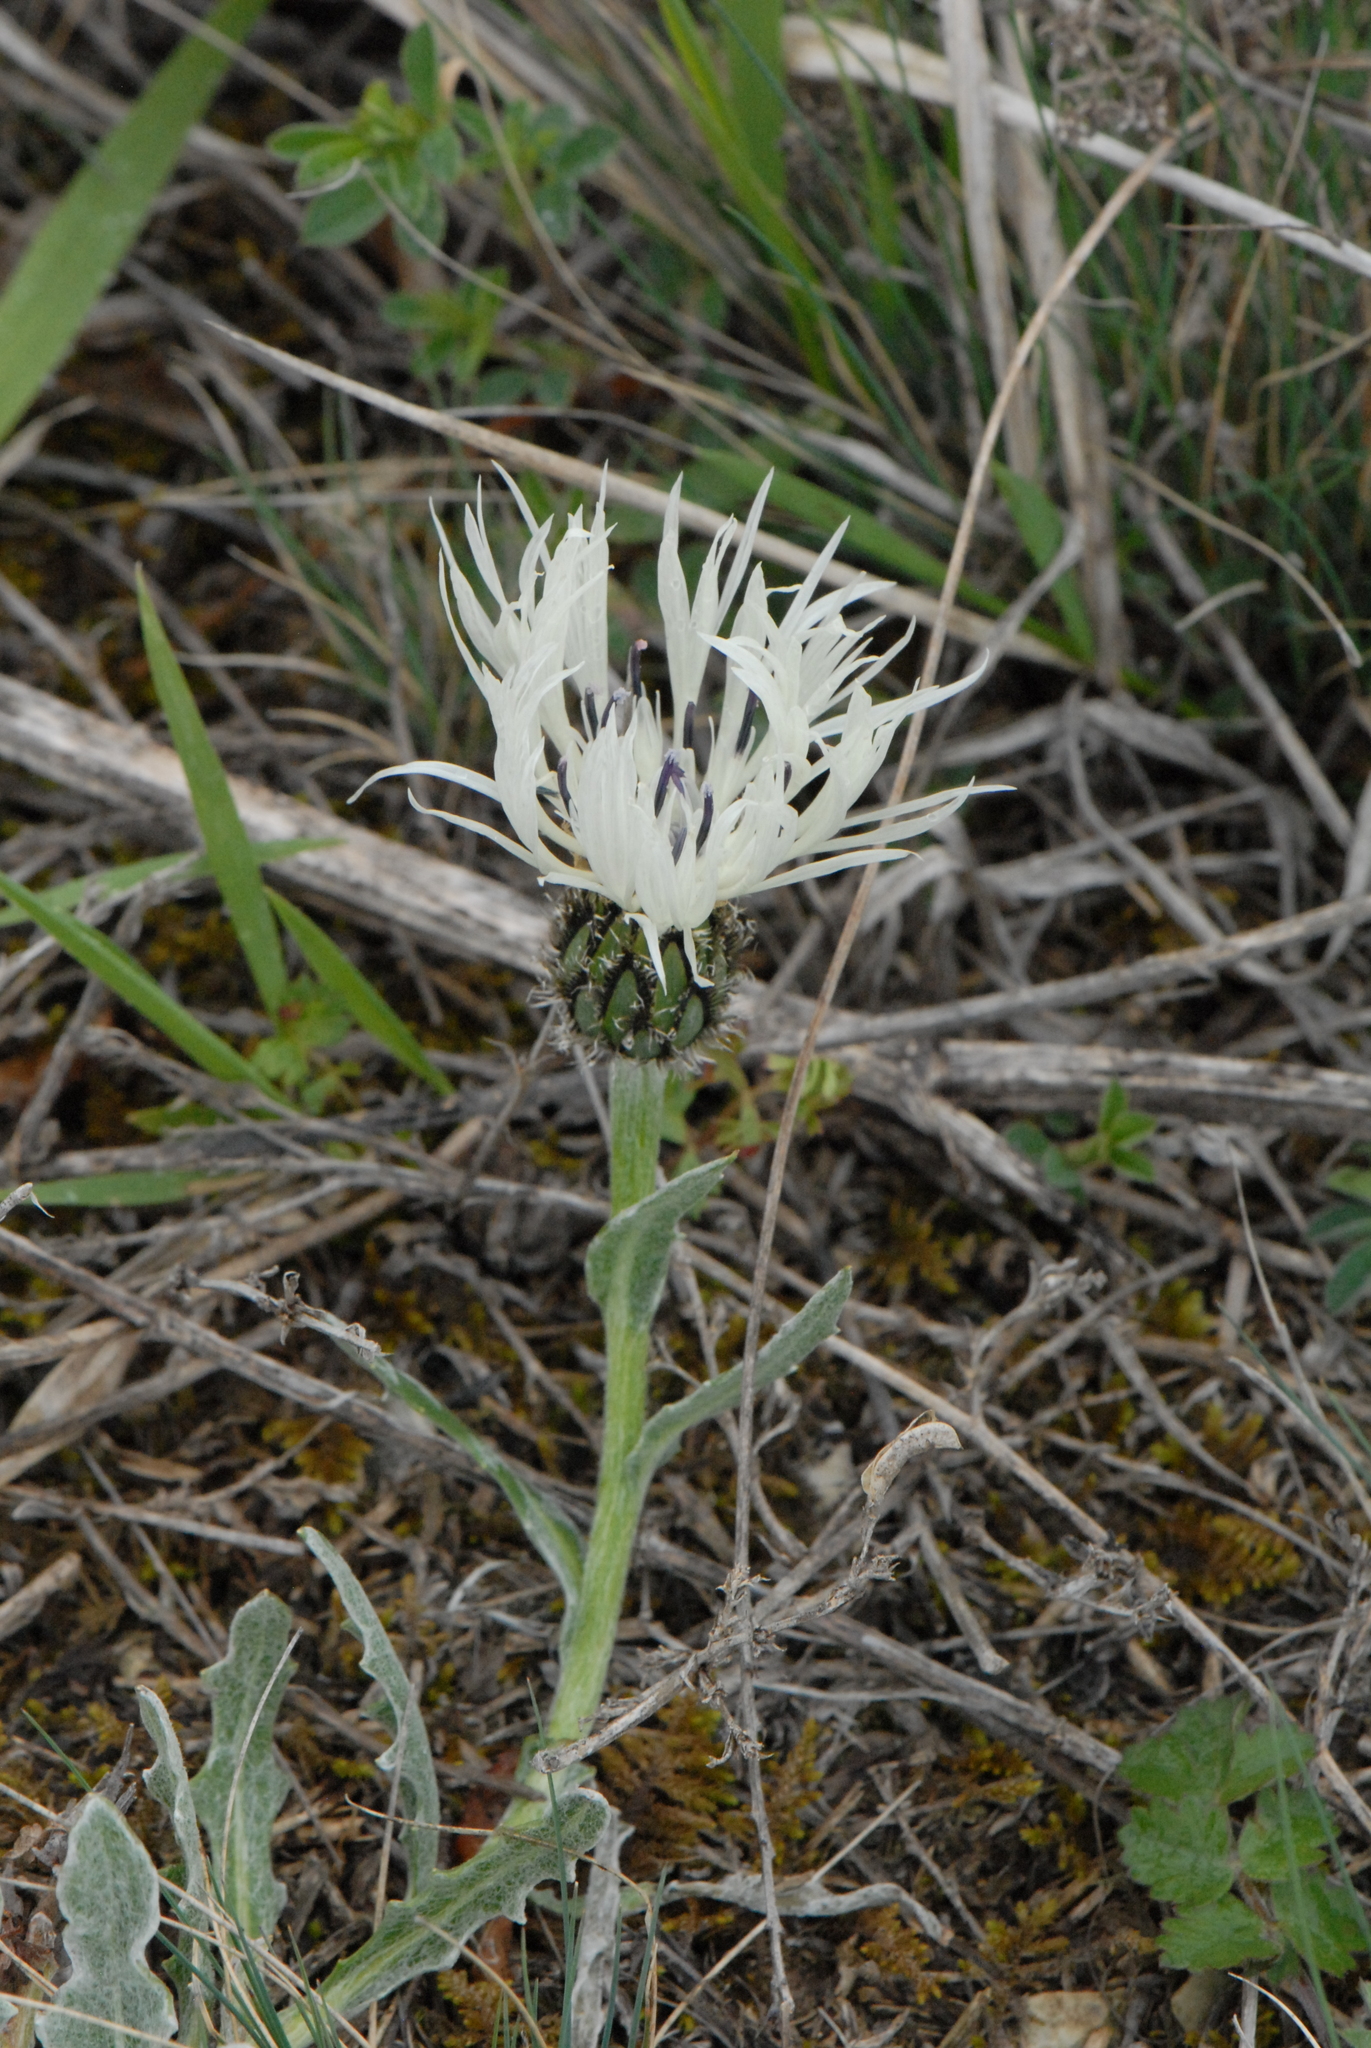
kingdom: Plantae
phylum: Tracheophyta
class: Magnoliopsida
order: Asterales
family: Asteraceae
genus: Centaurea
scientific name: Centaurea cheiranthifolia
